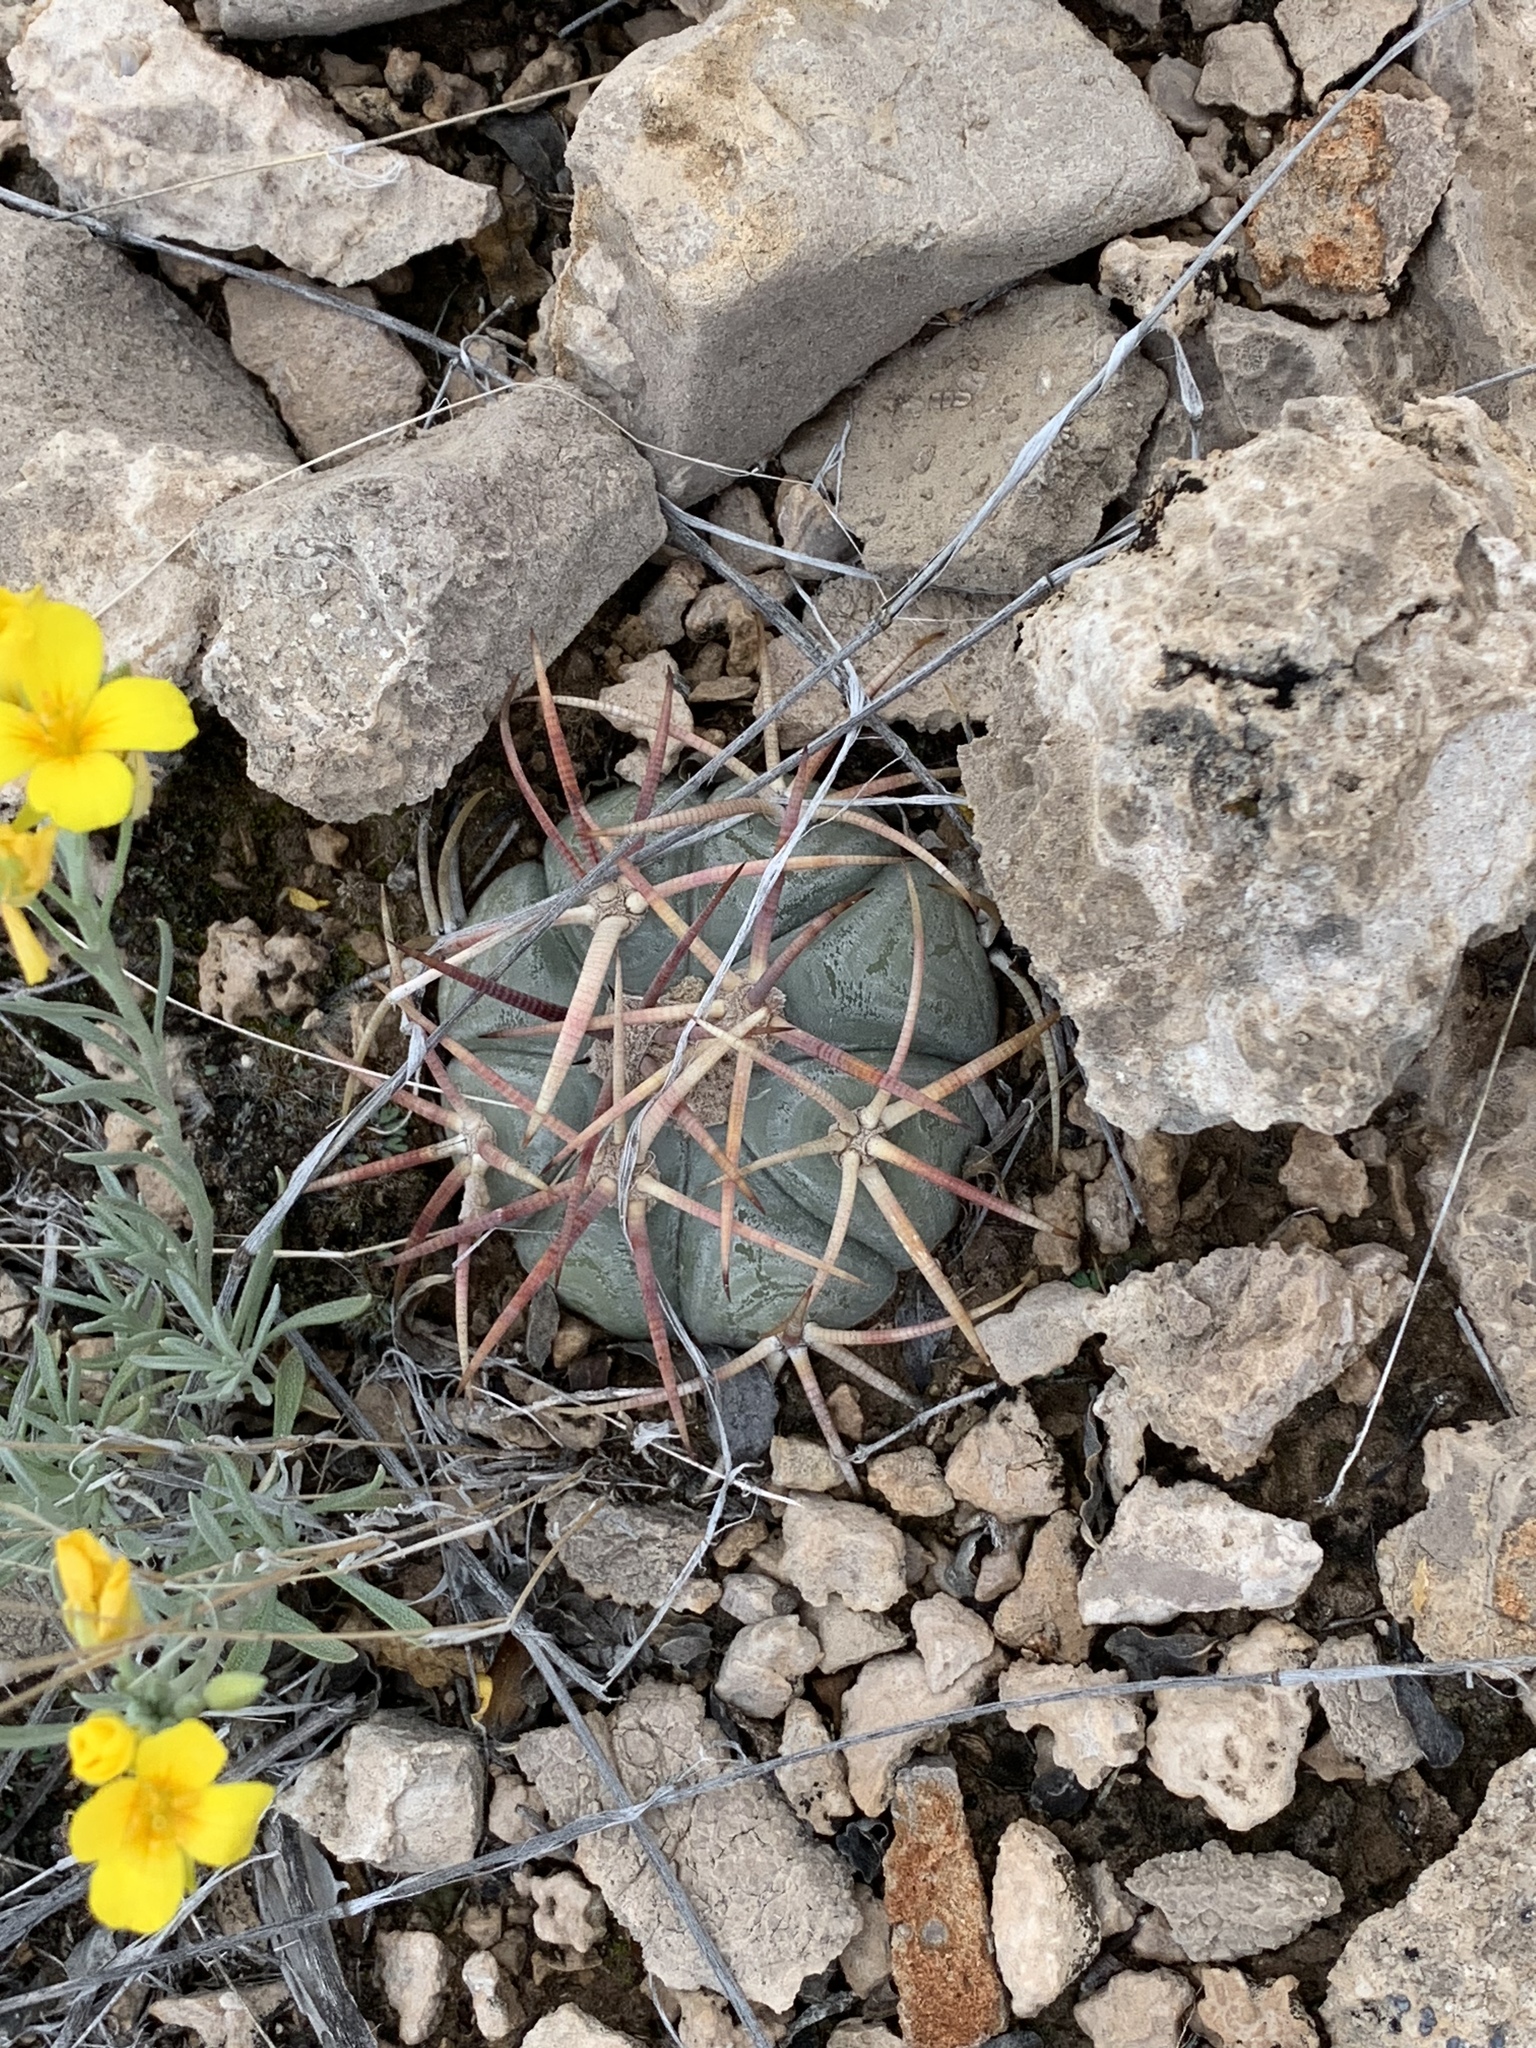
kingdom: Plantae
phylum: Tracheophyta
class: Magnoliopsida
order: Caryophyllales
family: Cactaceae
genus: Echinocactus
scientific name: Echinocactus horizonthalonius
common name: Devilshead
